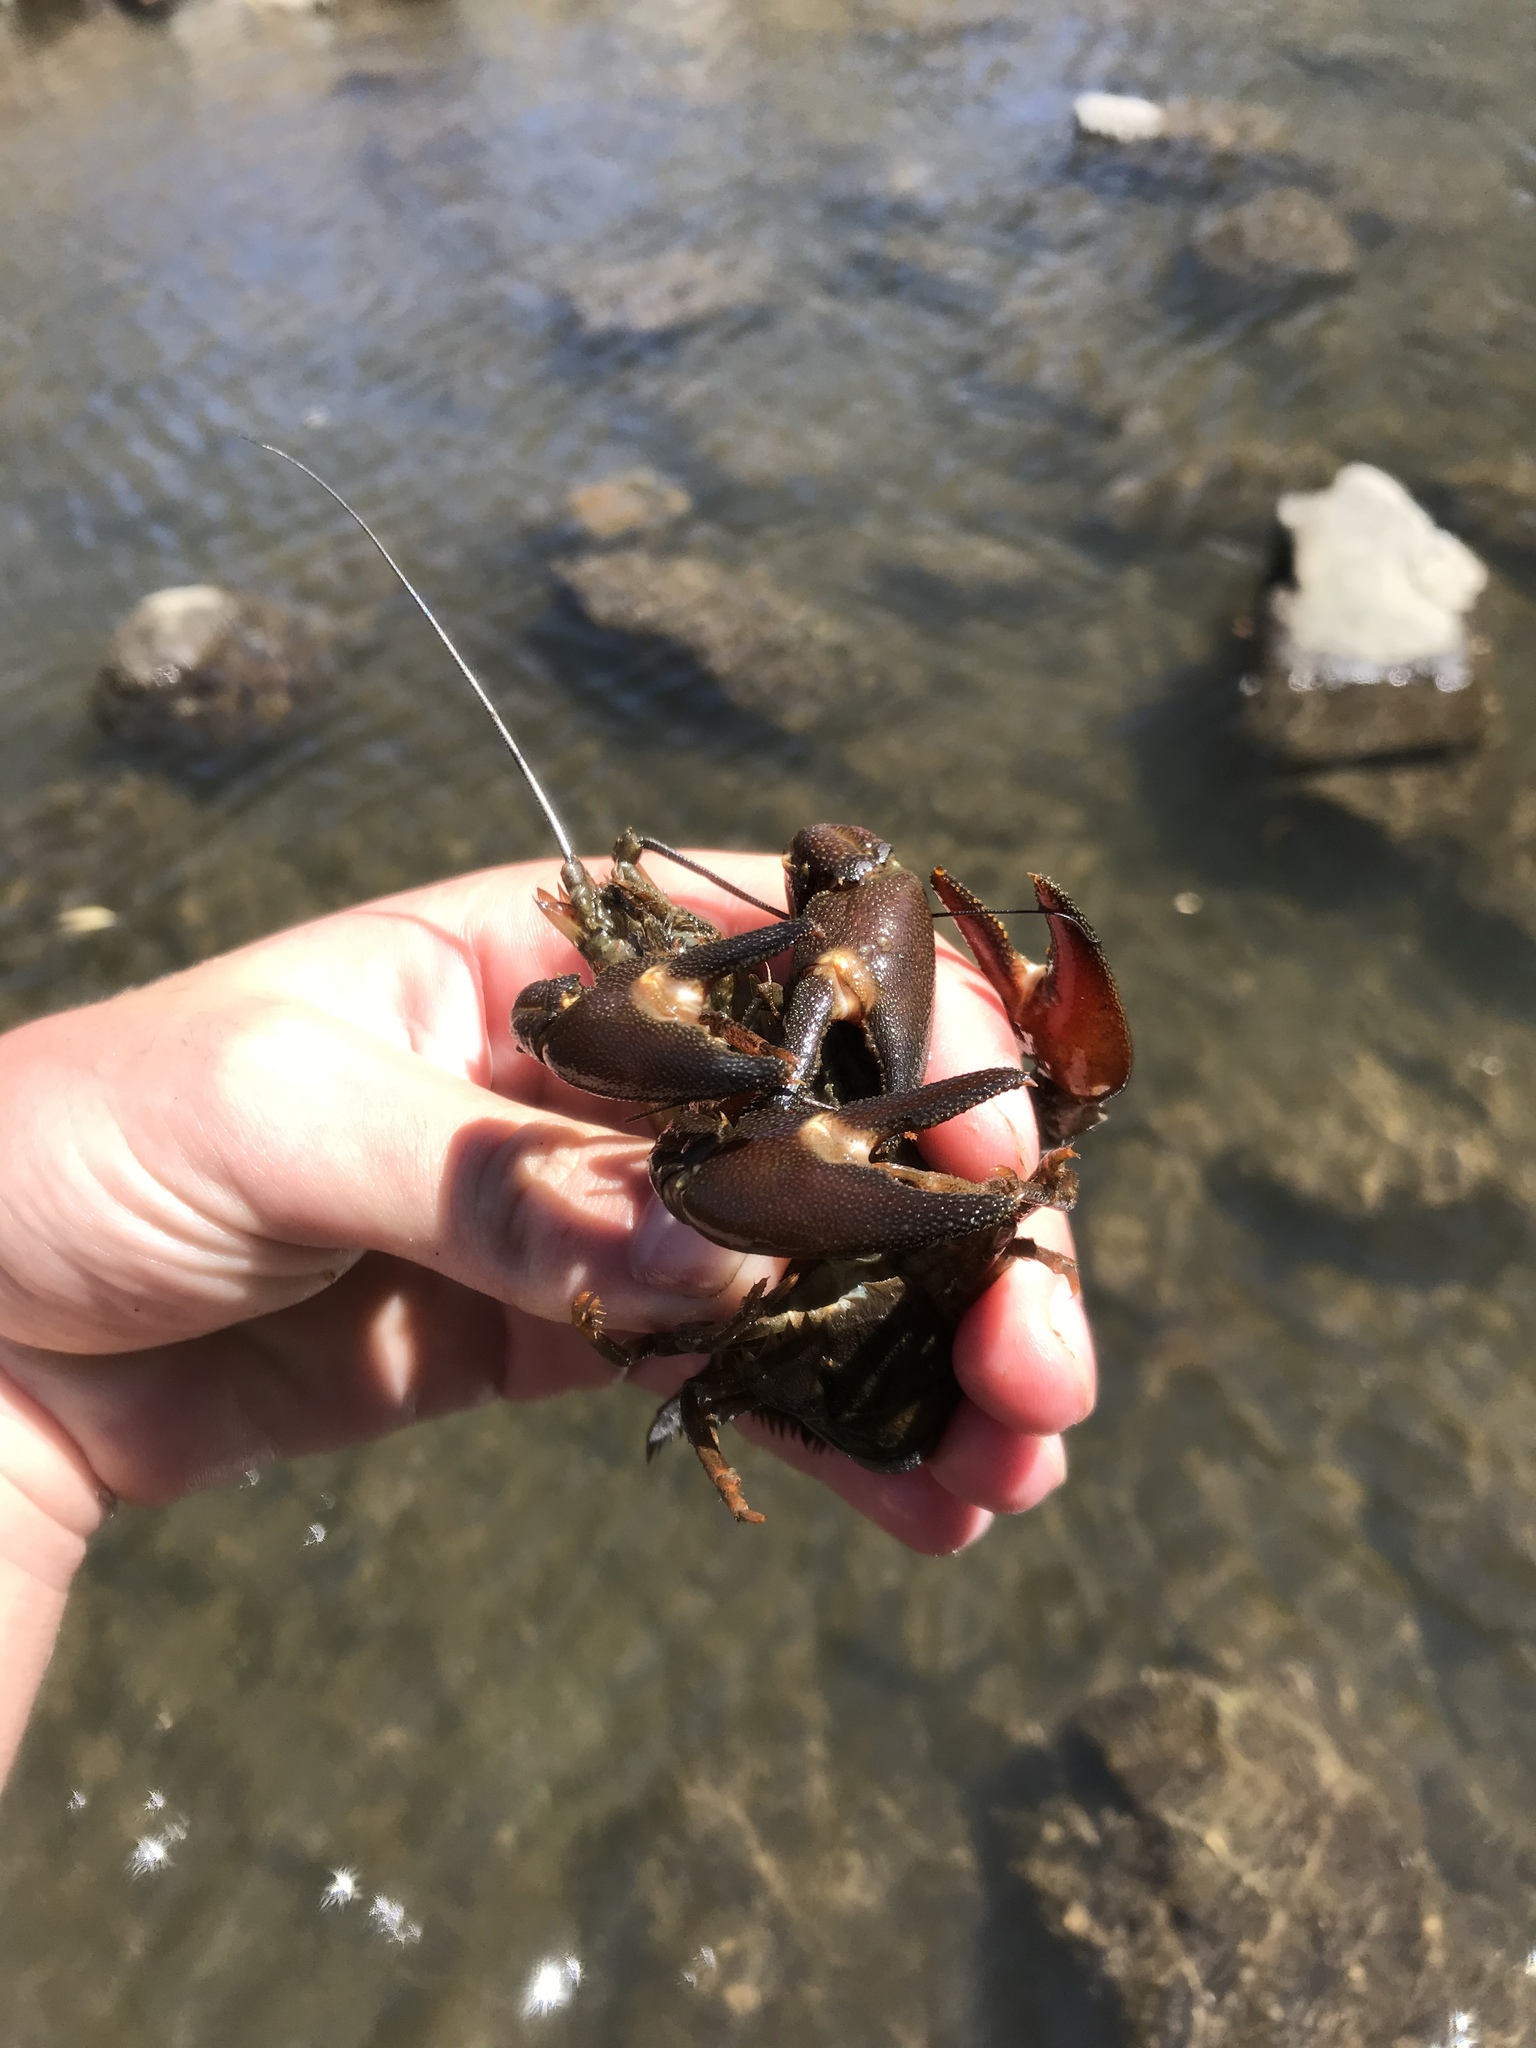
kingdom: Animalia
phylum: Arthropoda
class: Malacostraca
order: Decapoda
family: Astacidae
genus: Pacifastacus
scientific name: Pacifastacus leniusculus
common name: Signal crayfish
